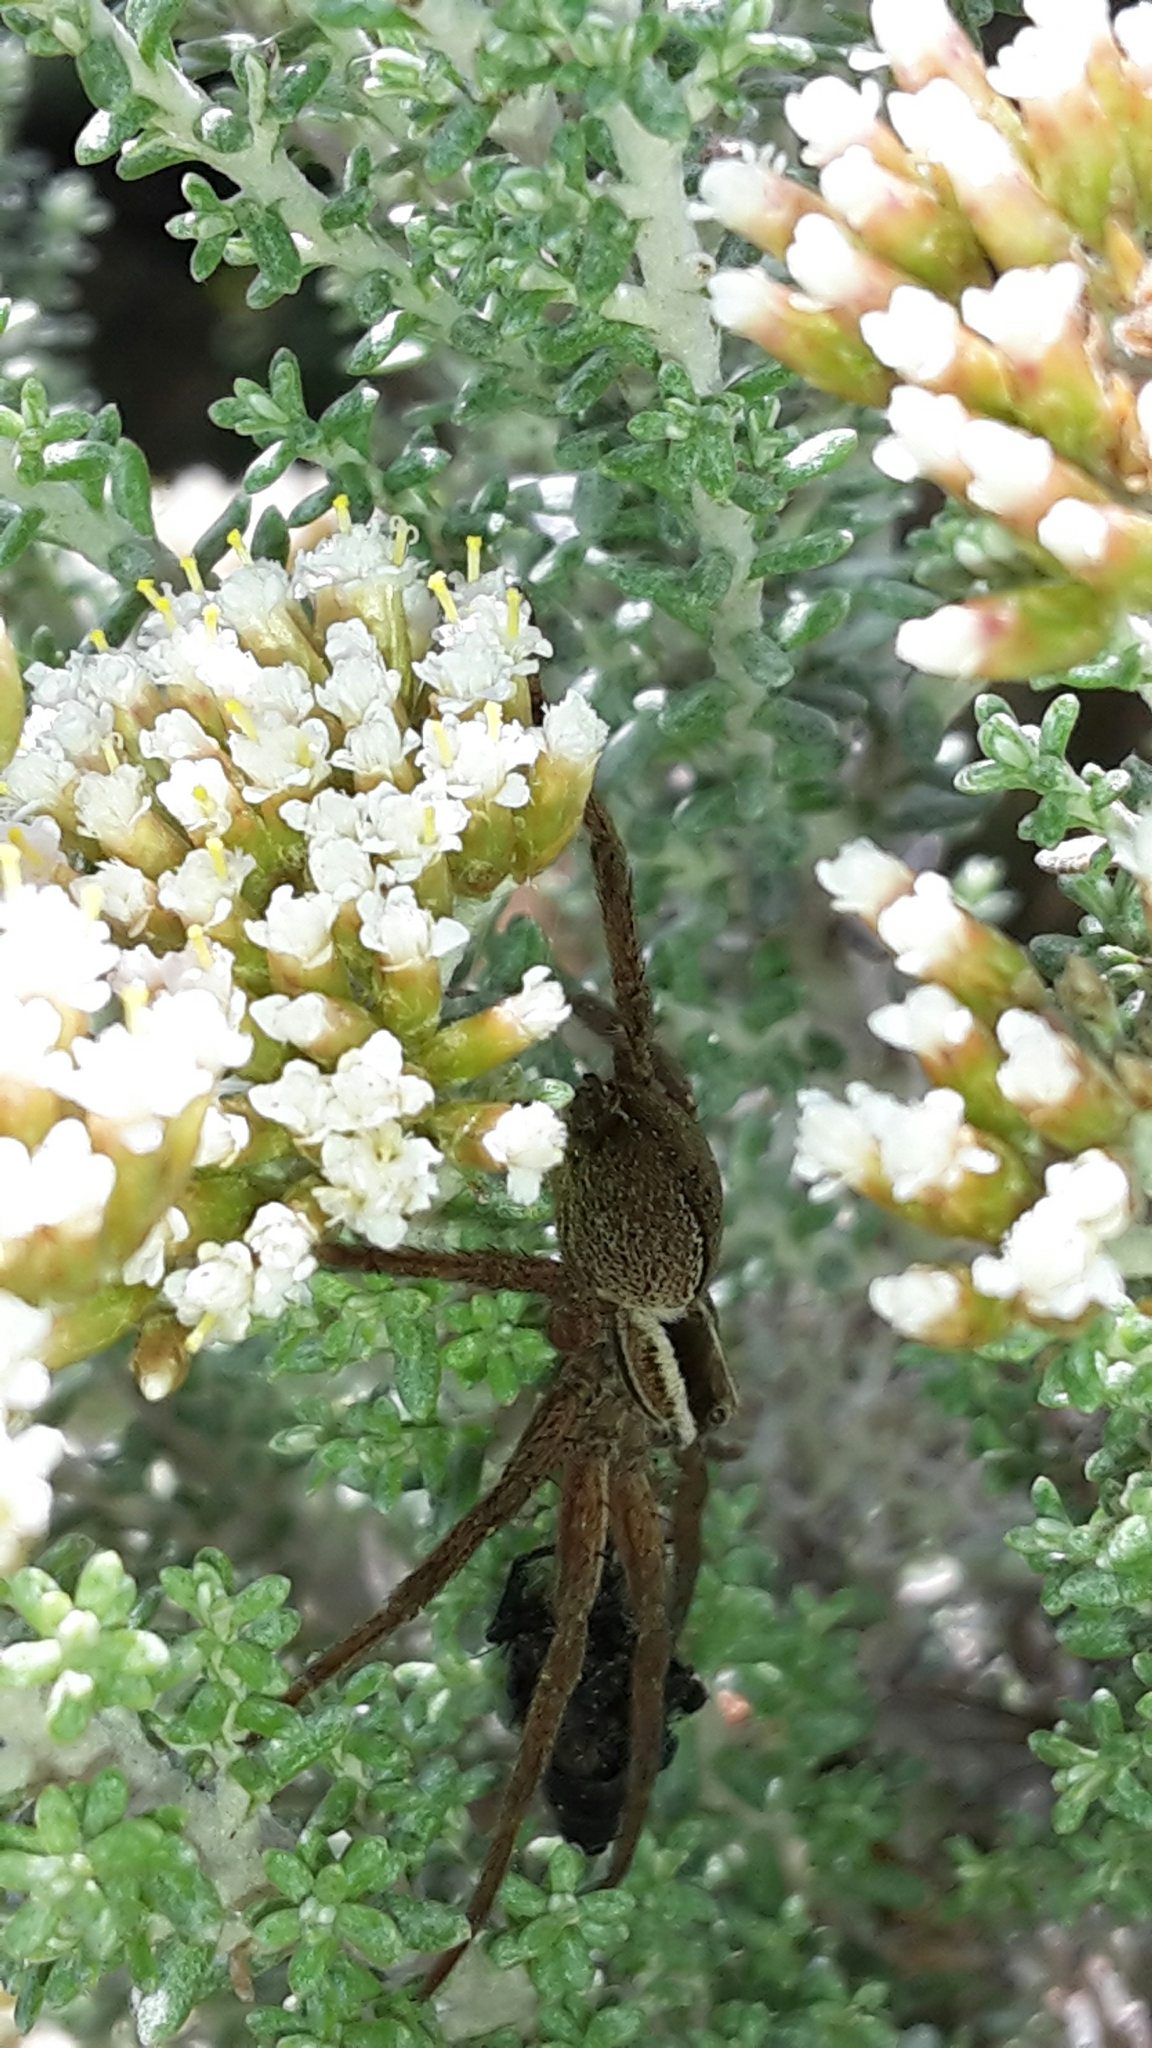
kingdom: Animalia
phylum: Arthropoda
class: Arachnida
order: Araneae
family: Pisauridae
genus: Dolomedes
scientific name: Dolomedes minor
